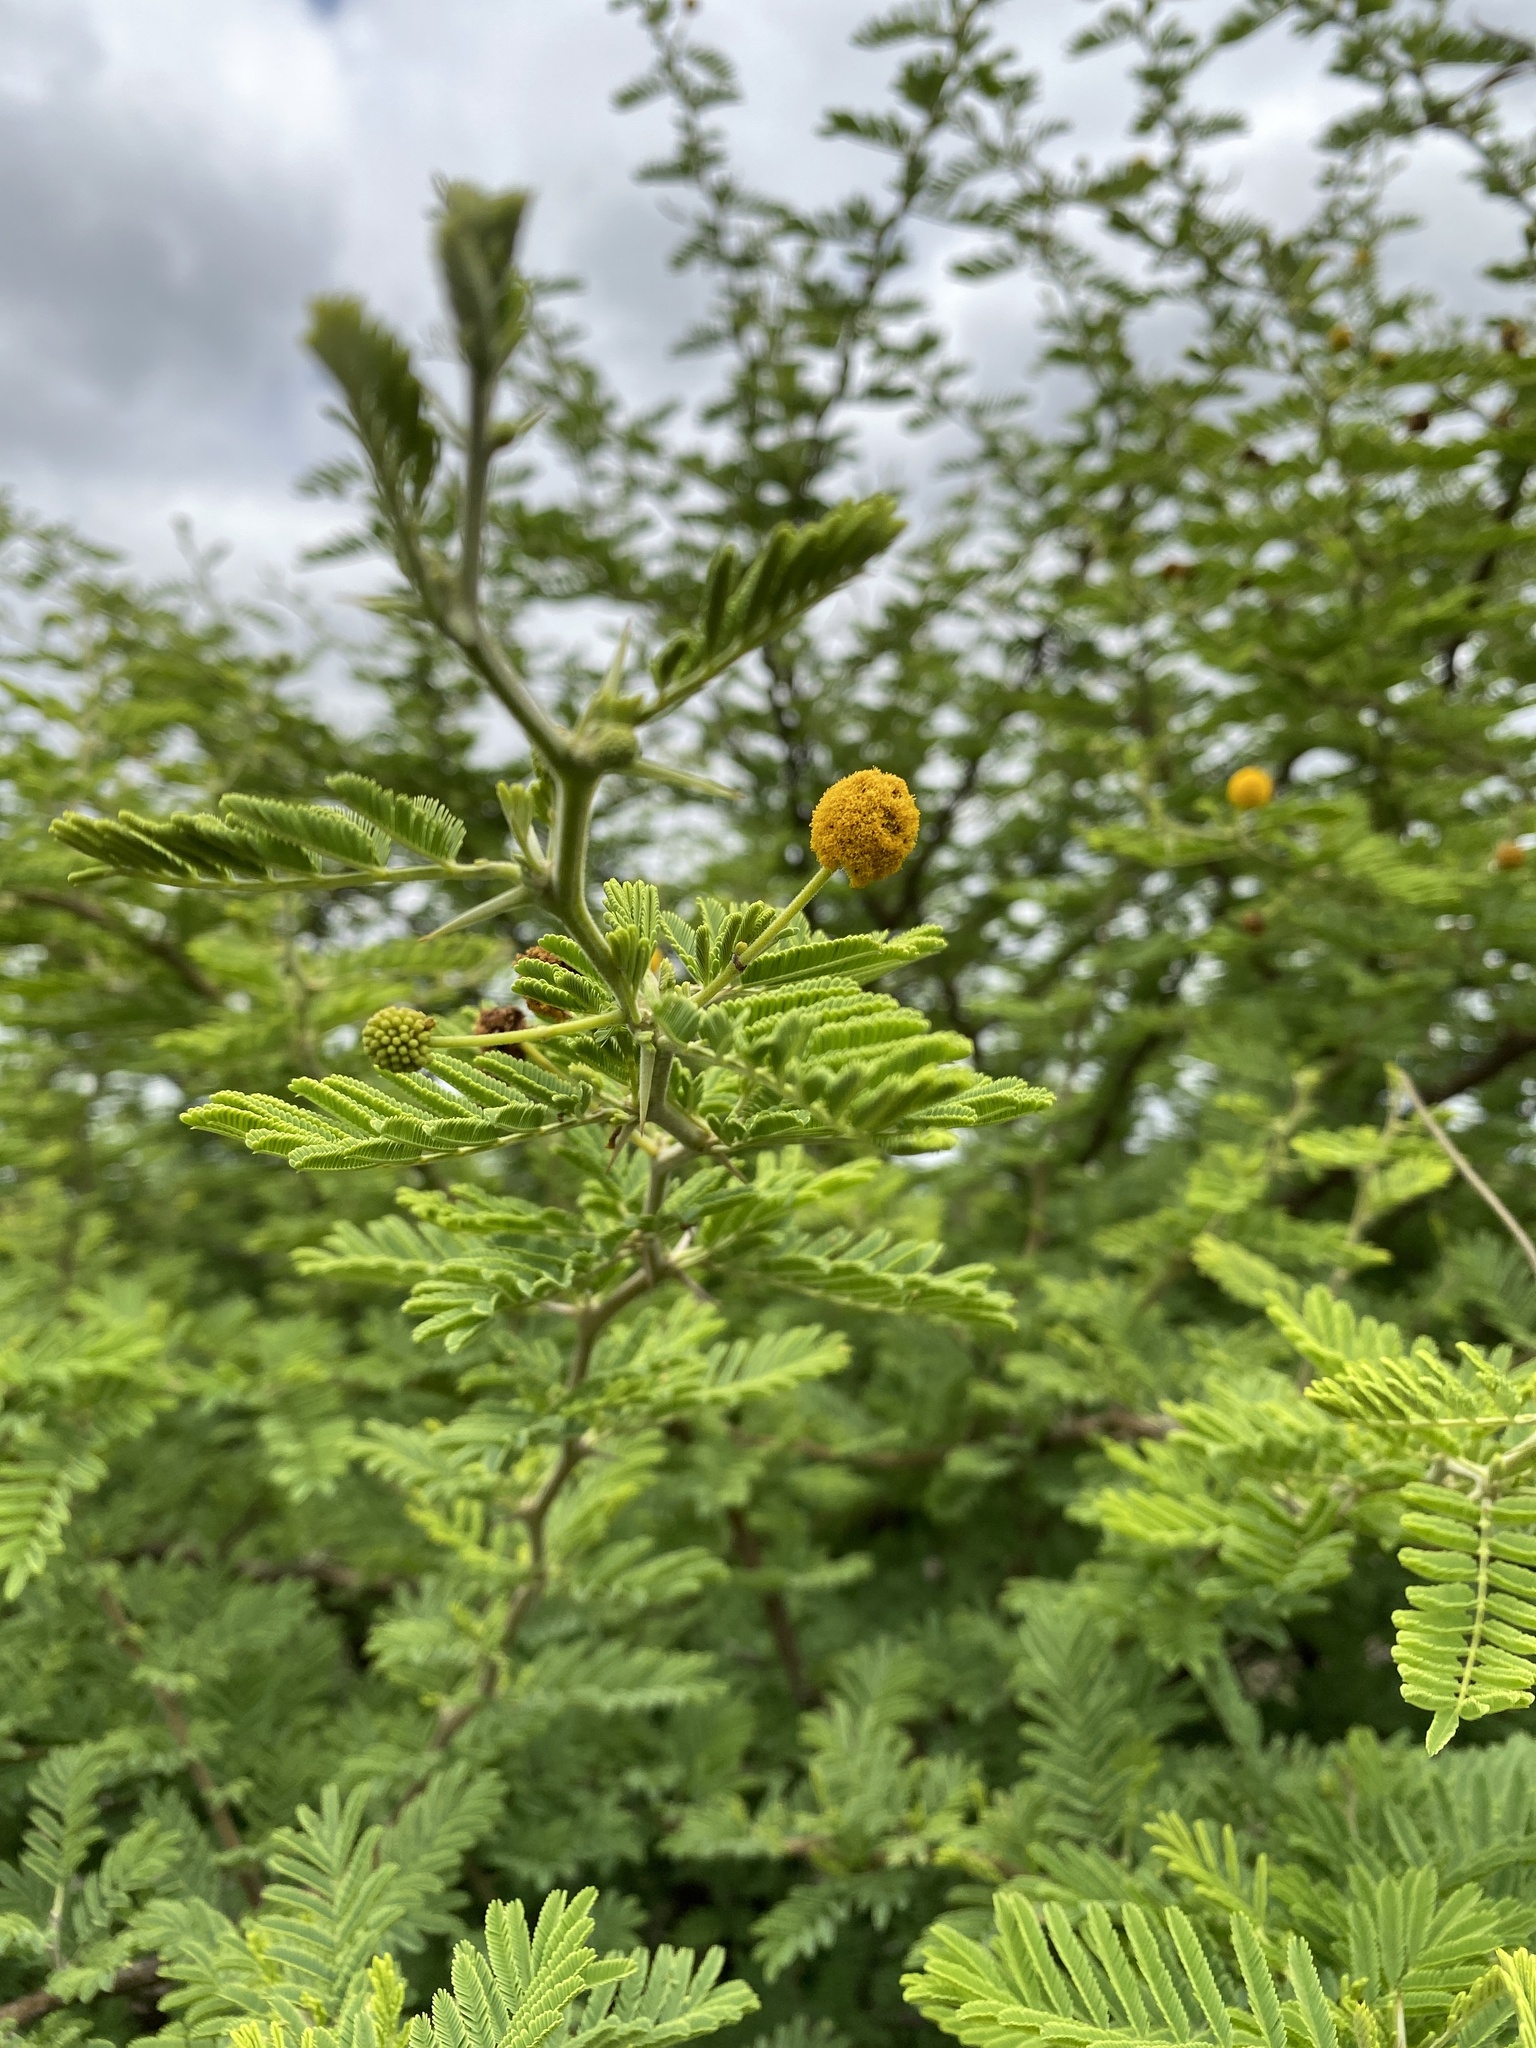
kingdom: Plantae
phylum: Tracheophyta
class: Magnoliopsida
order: Fabales
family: Fabaceae
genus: Vachellia
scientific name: Vachellia karroo
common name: Sweet thorn
